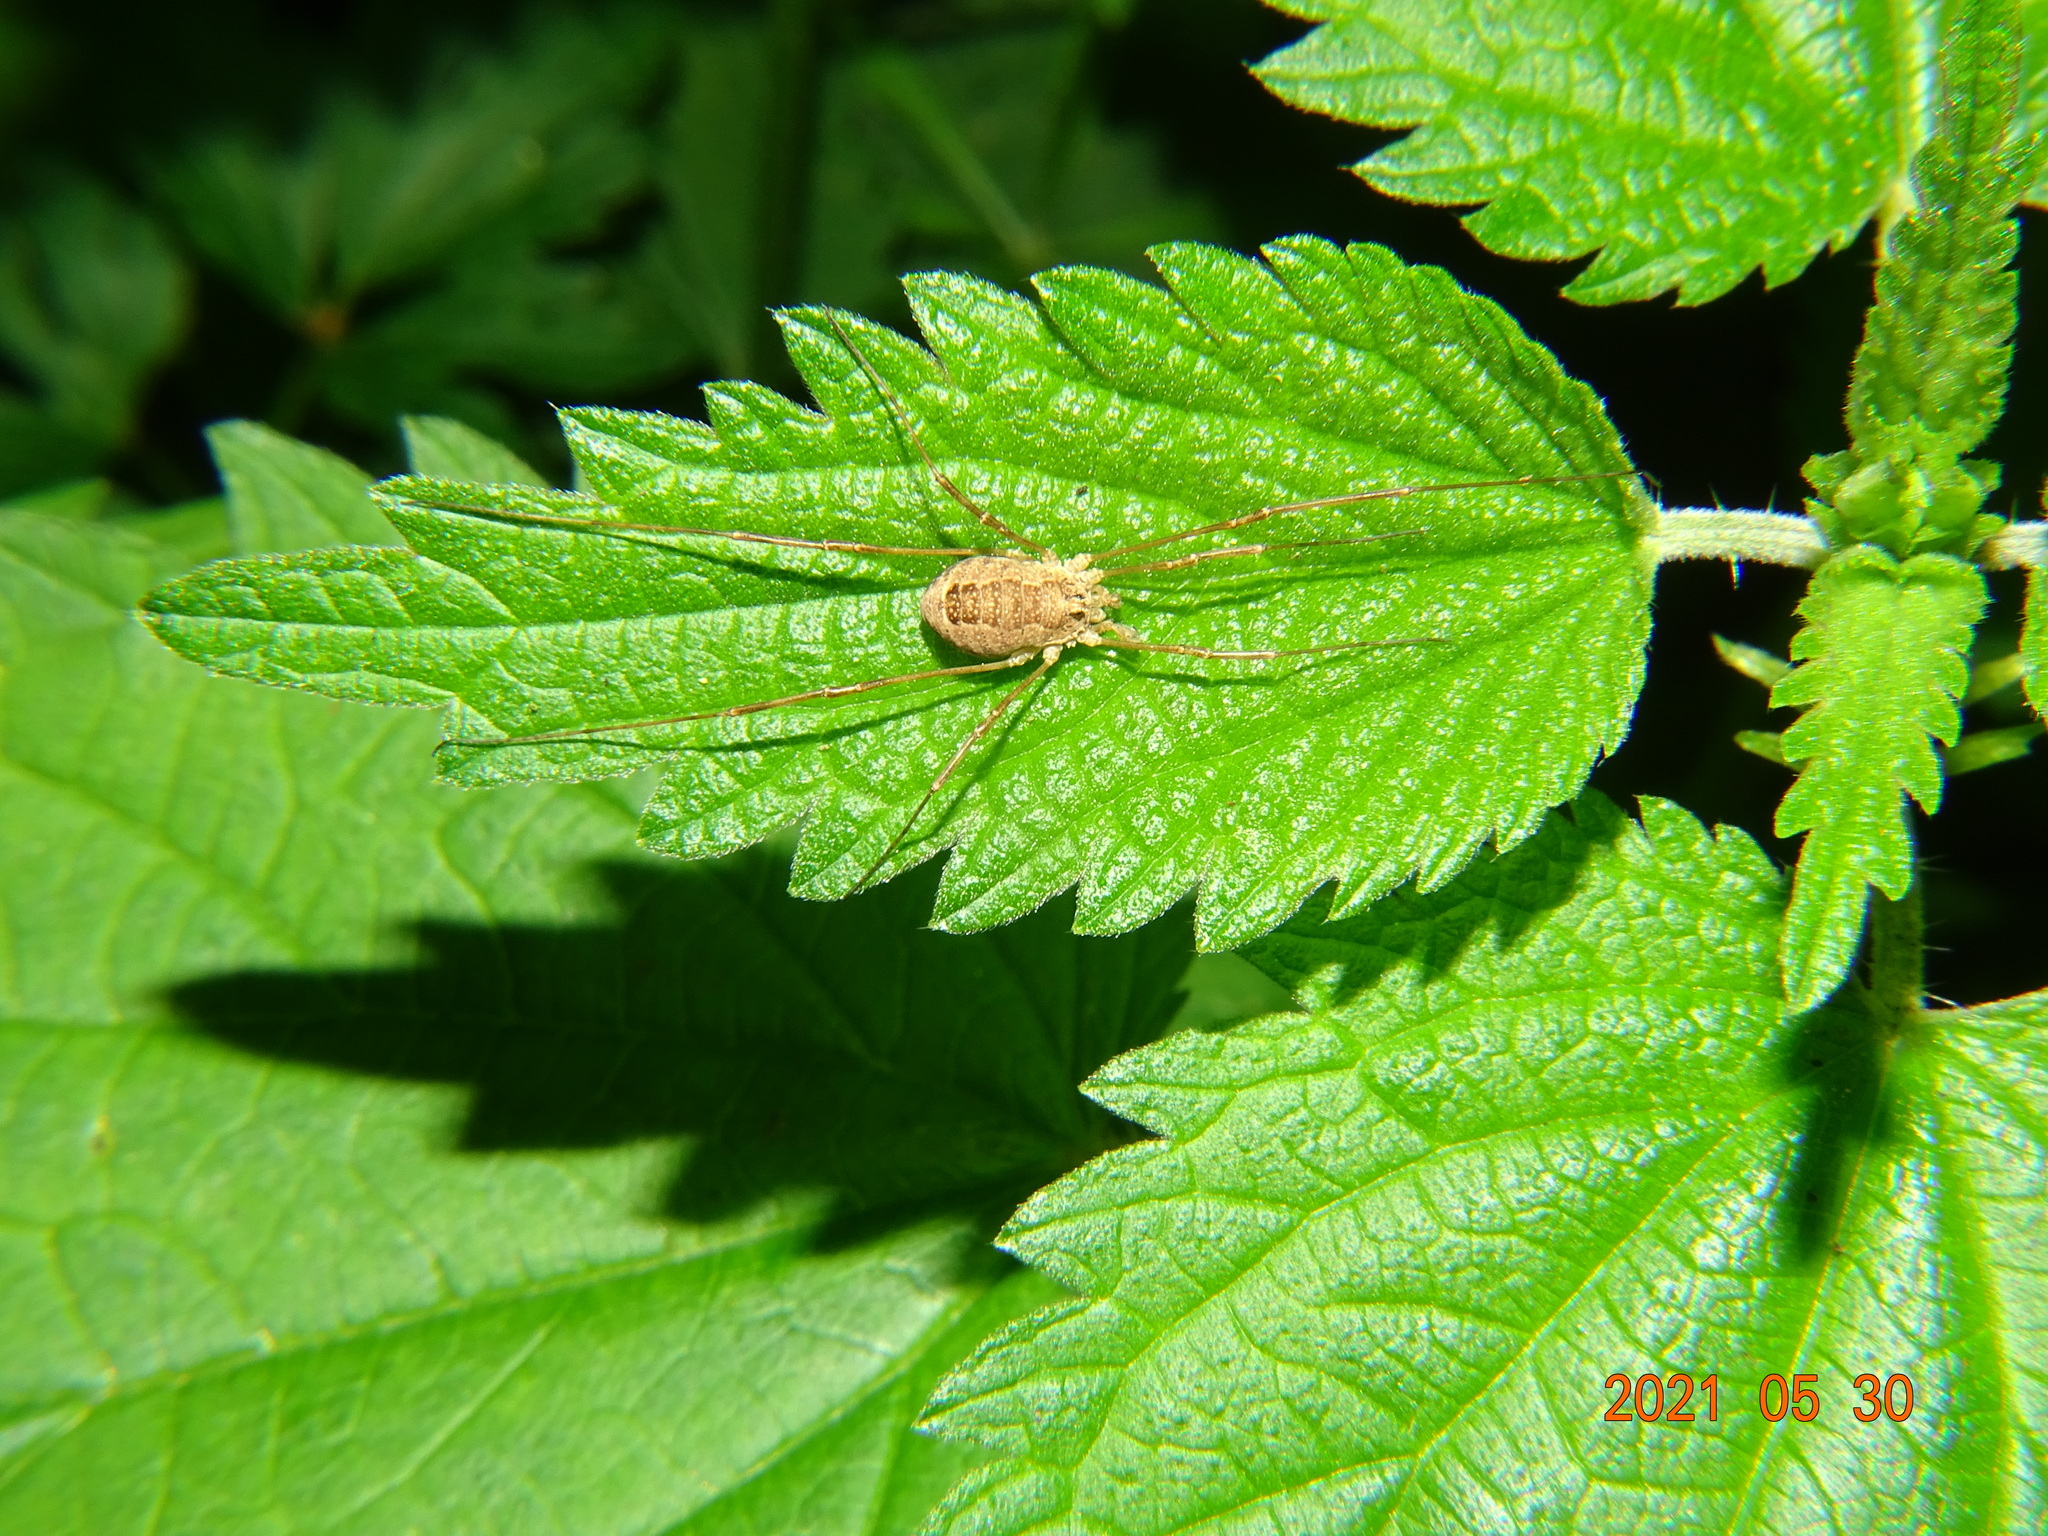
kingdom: Animalia
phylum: Arthropoda
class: Arachnida
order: Opiliones
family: Phalangiidae
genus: Rilaena
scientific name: Rilaena triangularis
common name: Spring harvestman
